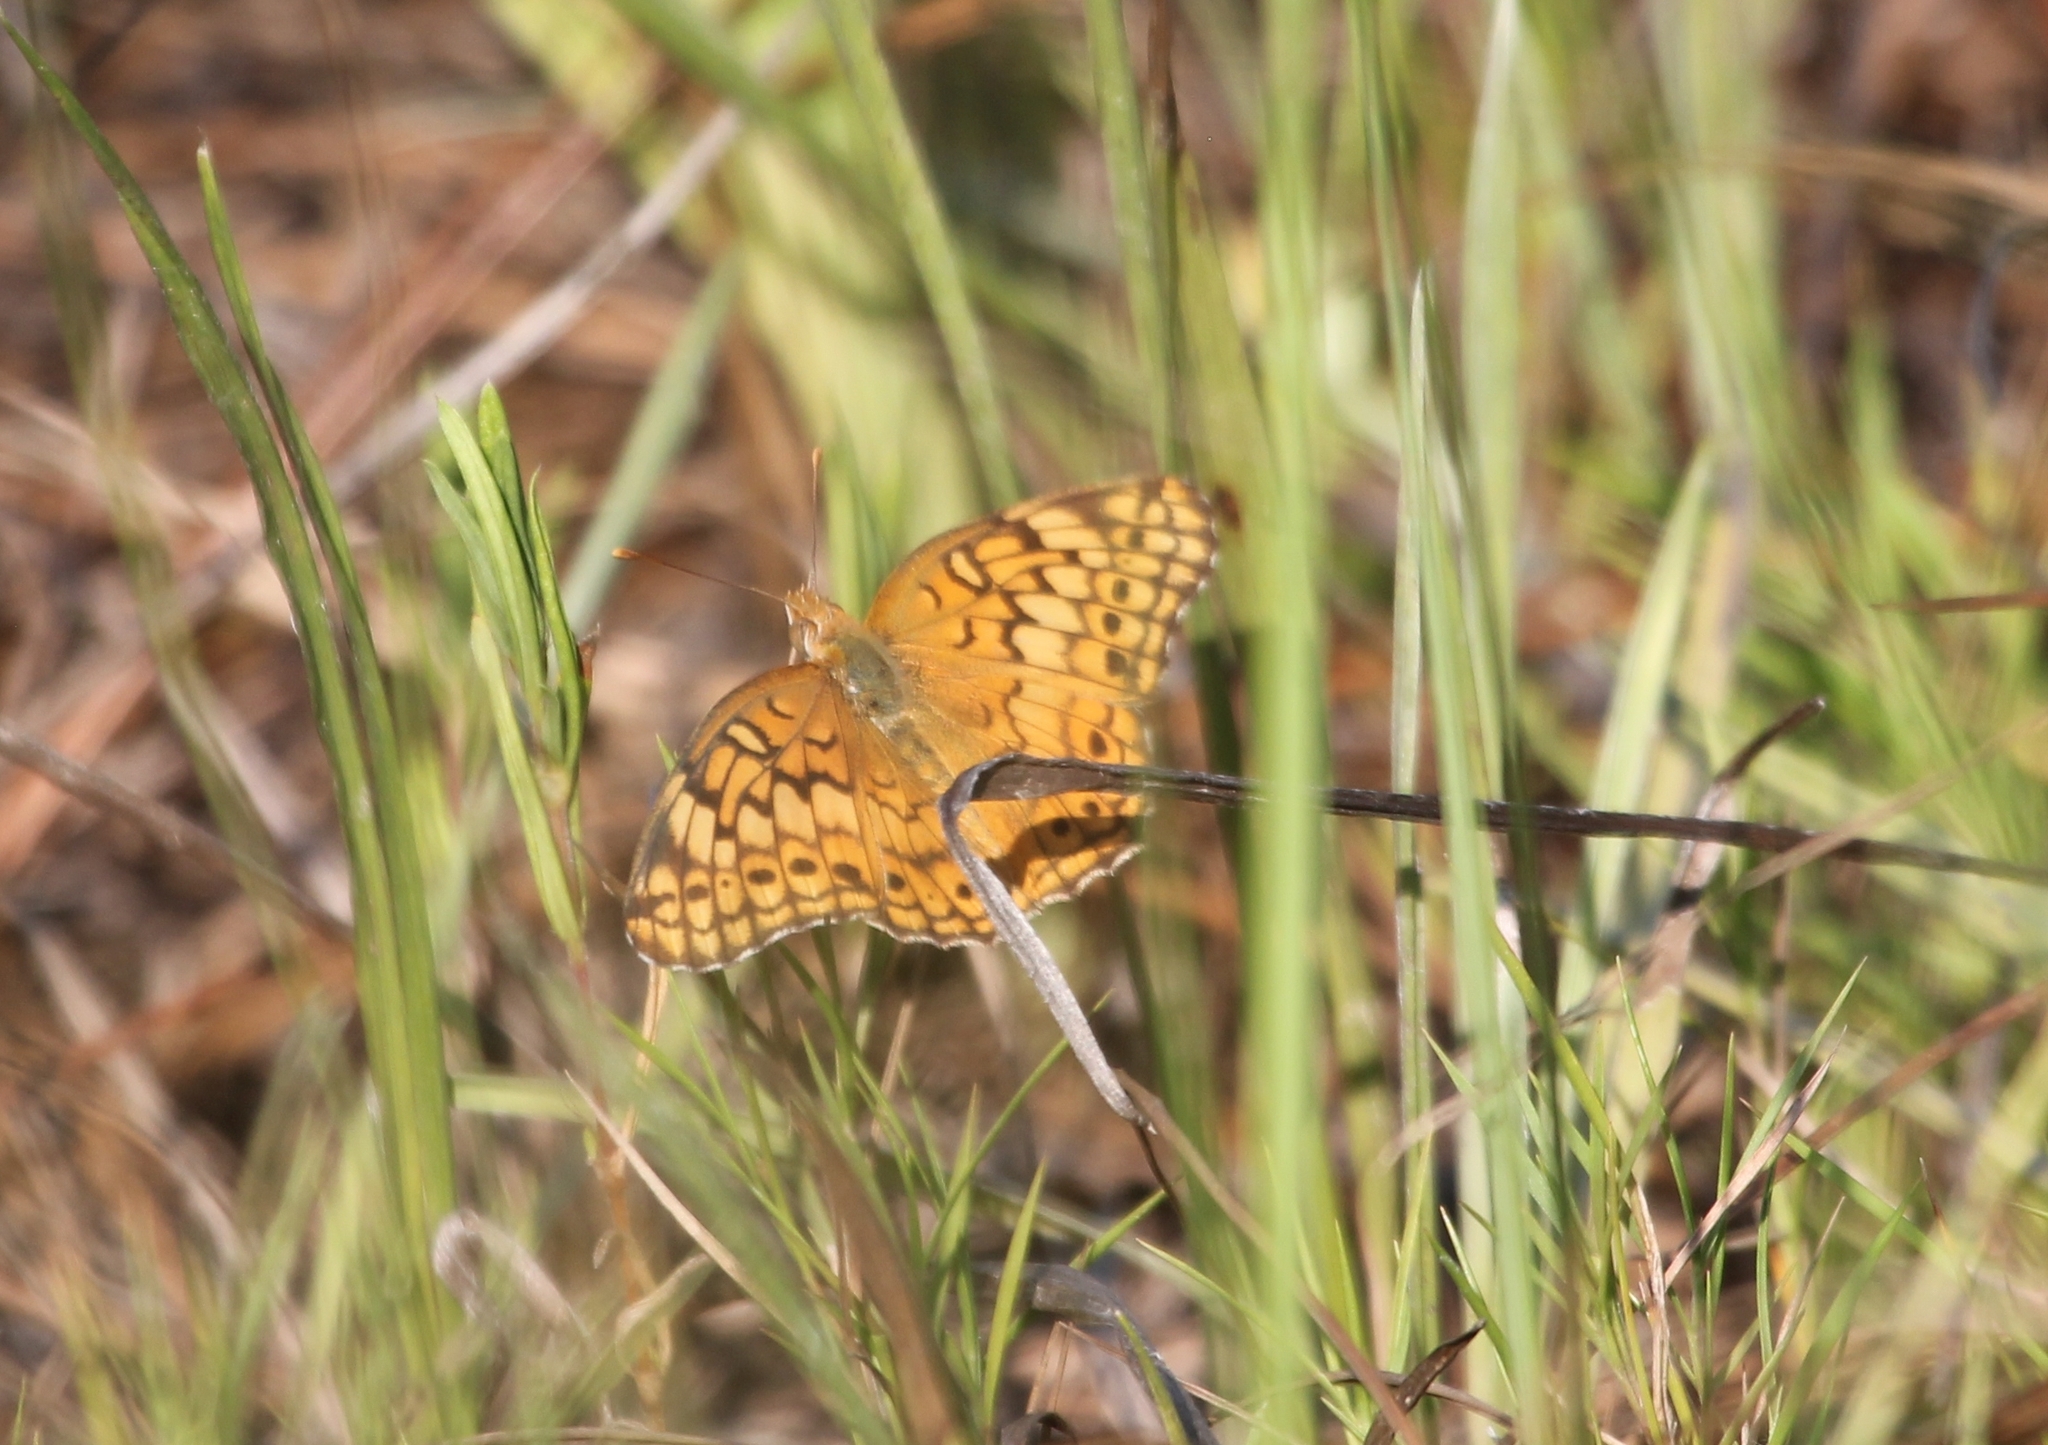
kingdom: Animalia
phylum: Arthropoda
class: Insecta
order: Lepidoptera
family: Nymphalidae
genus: Euptoieta
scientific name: Euptoieta claudia
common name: Variegated fritillary
